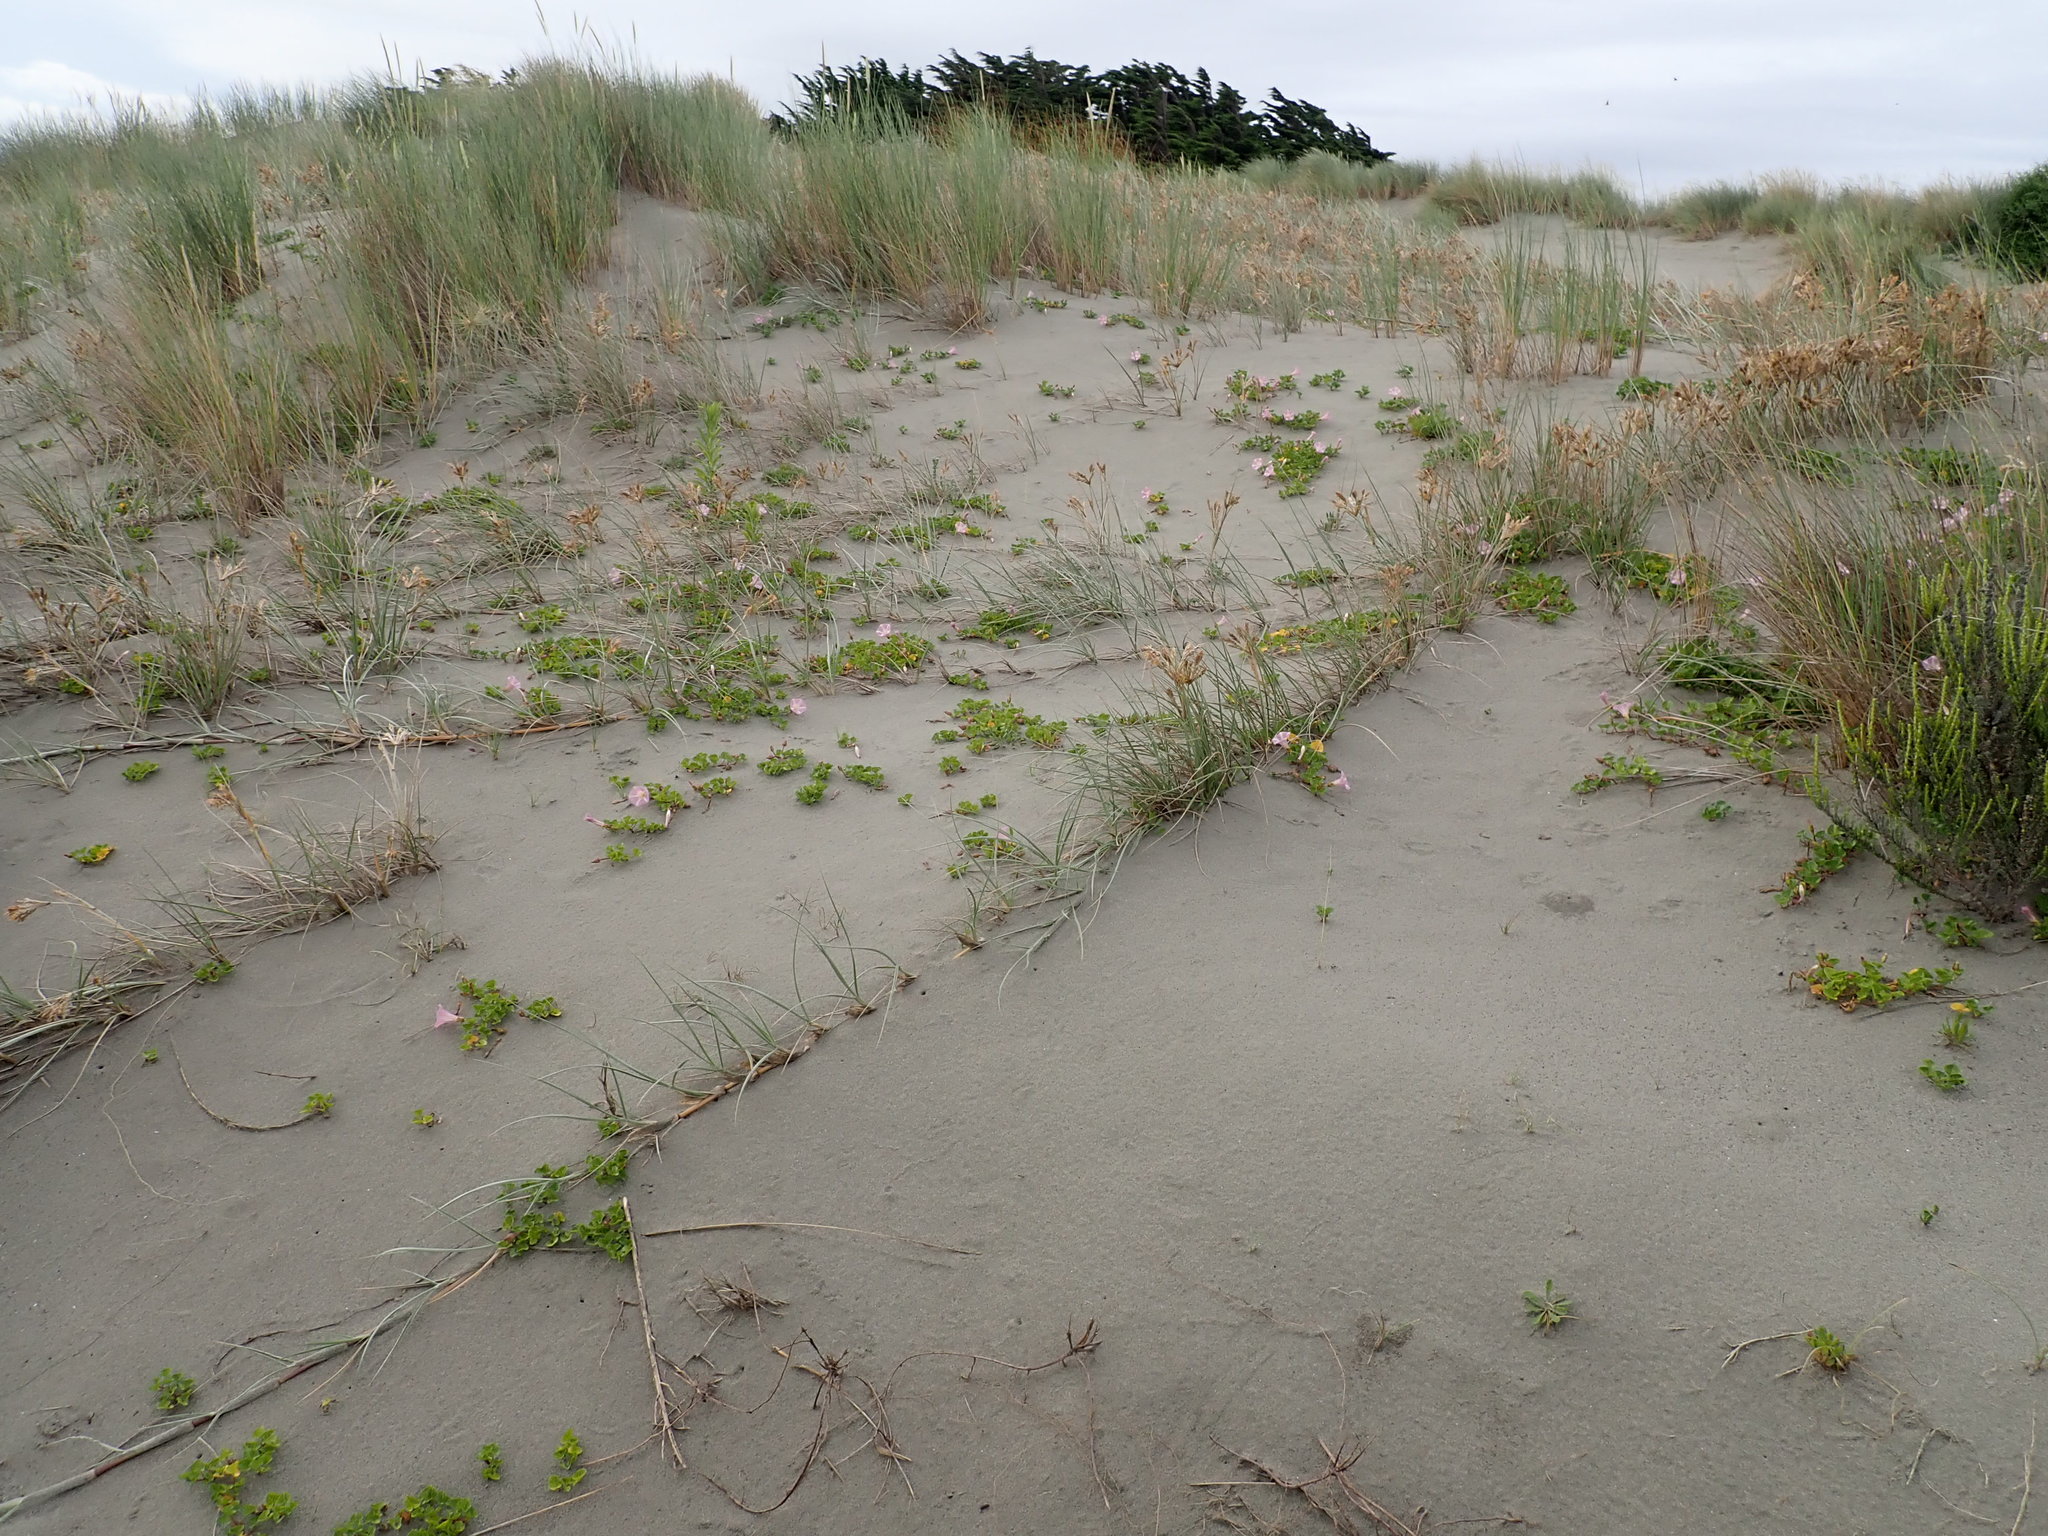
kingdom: Plantae
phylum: Tracheophyta
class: Magnoliopsida
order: Solanales
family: Convolvulaceae
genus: Calystegia
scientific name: Calystegia soldanella
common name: Sea bindweed
